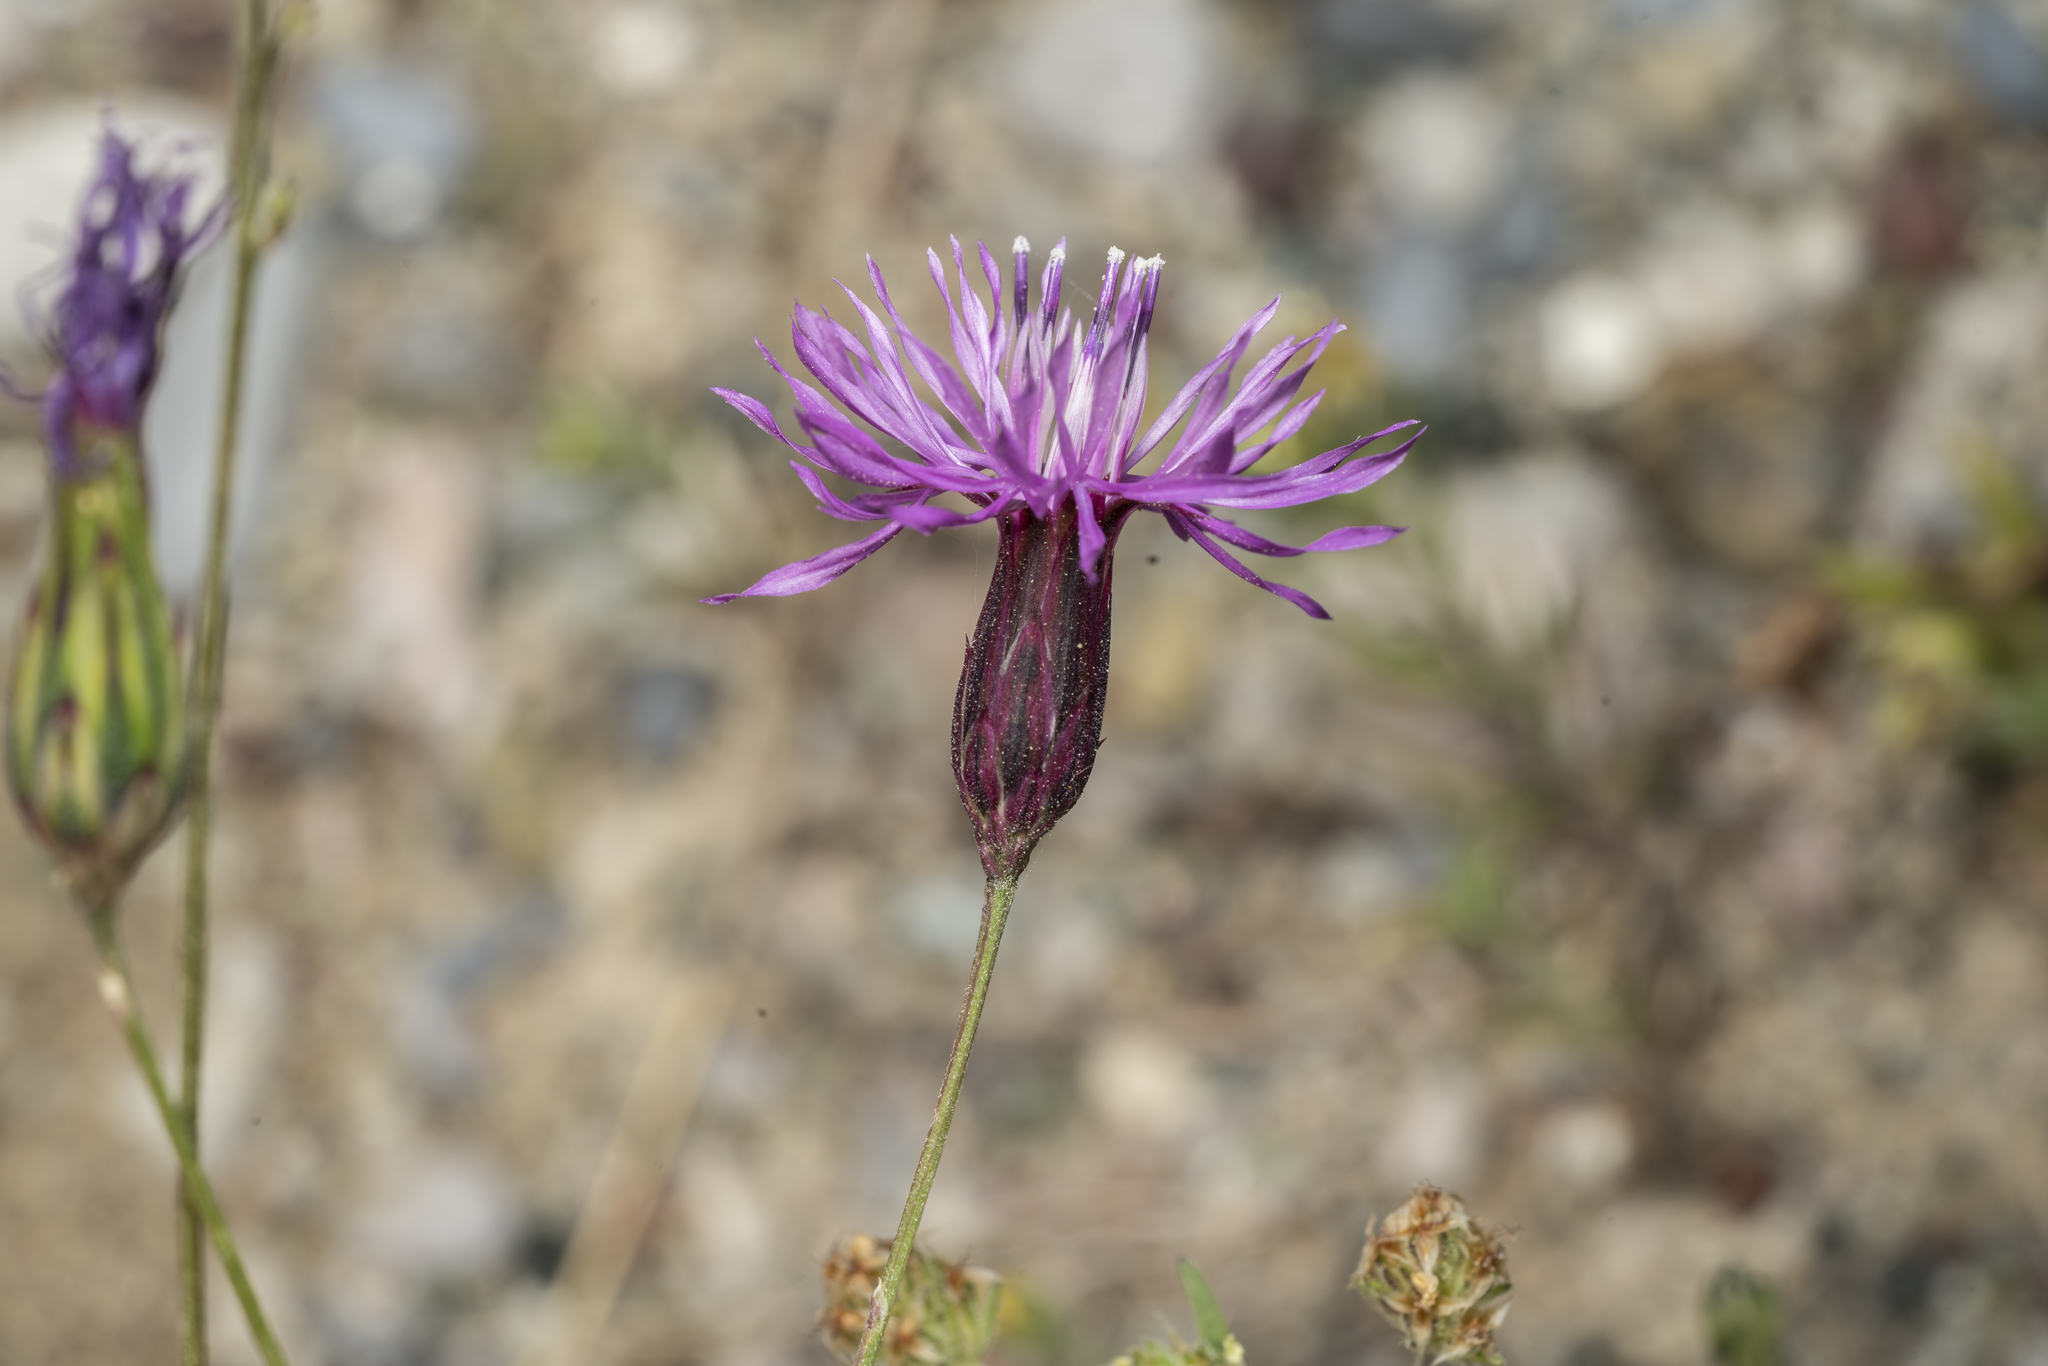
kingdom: Plantae
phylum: Tracheophyta
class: Magnoliopsida
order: Asterales
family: Asteraceae
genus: Crupina
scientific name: Crupina crupinastrum
